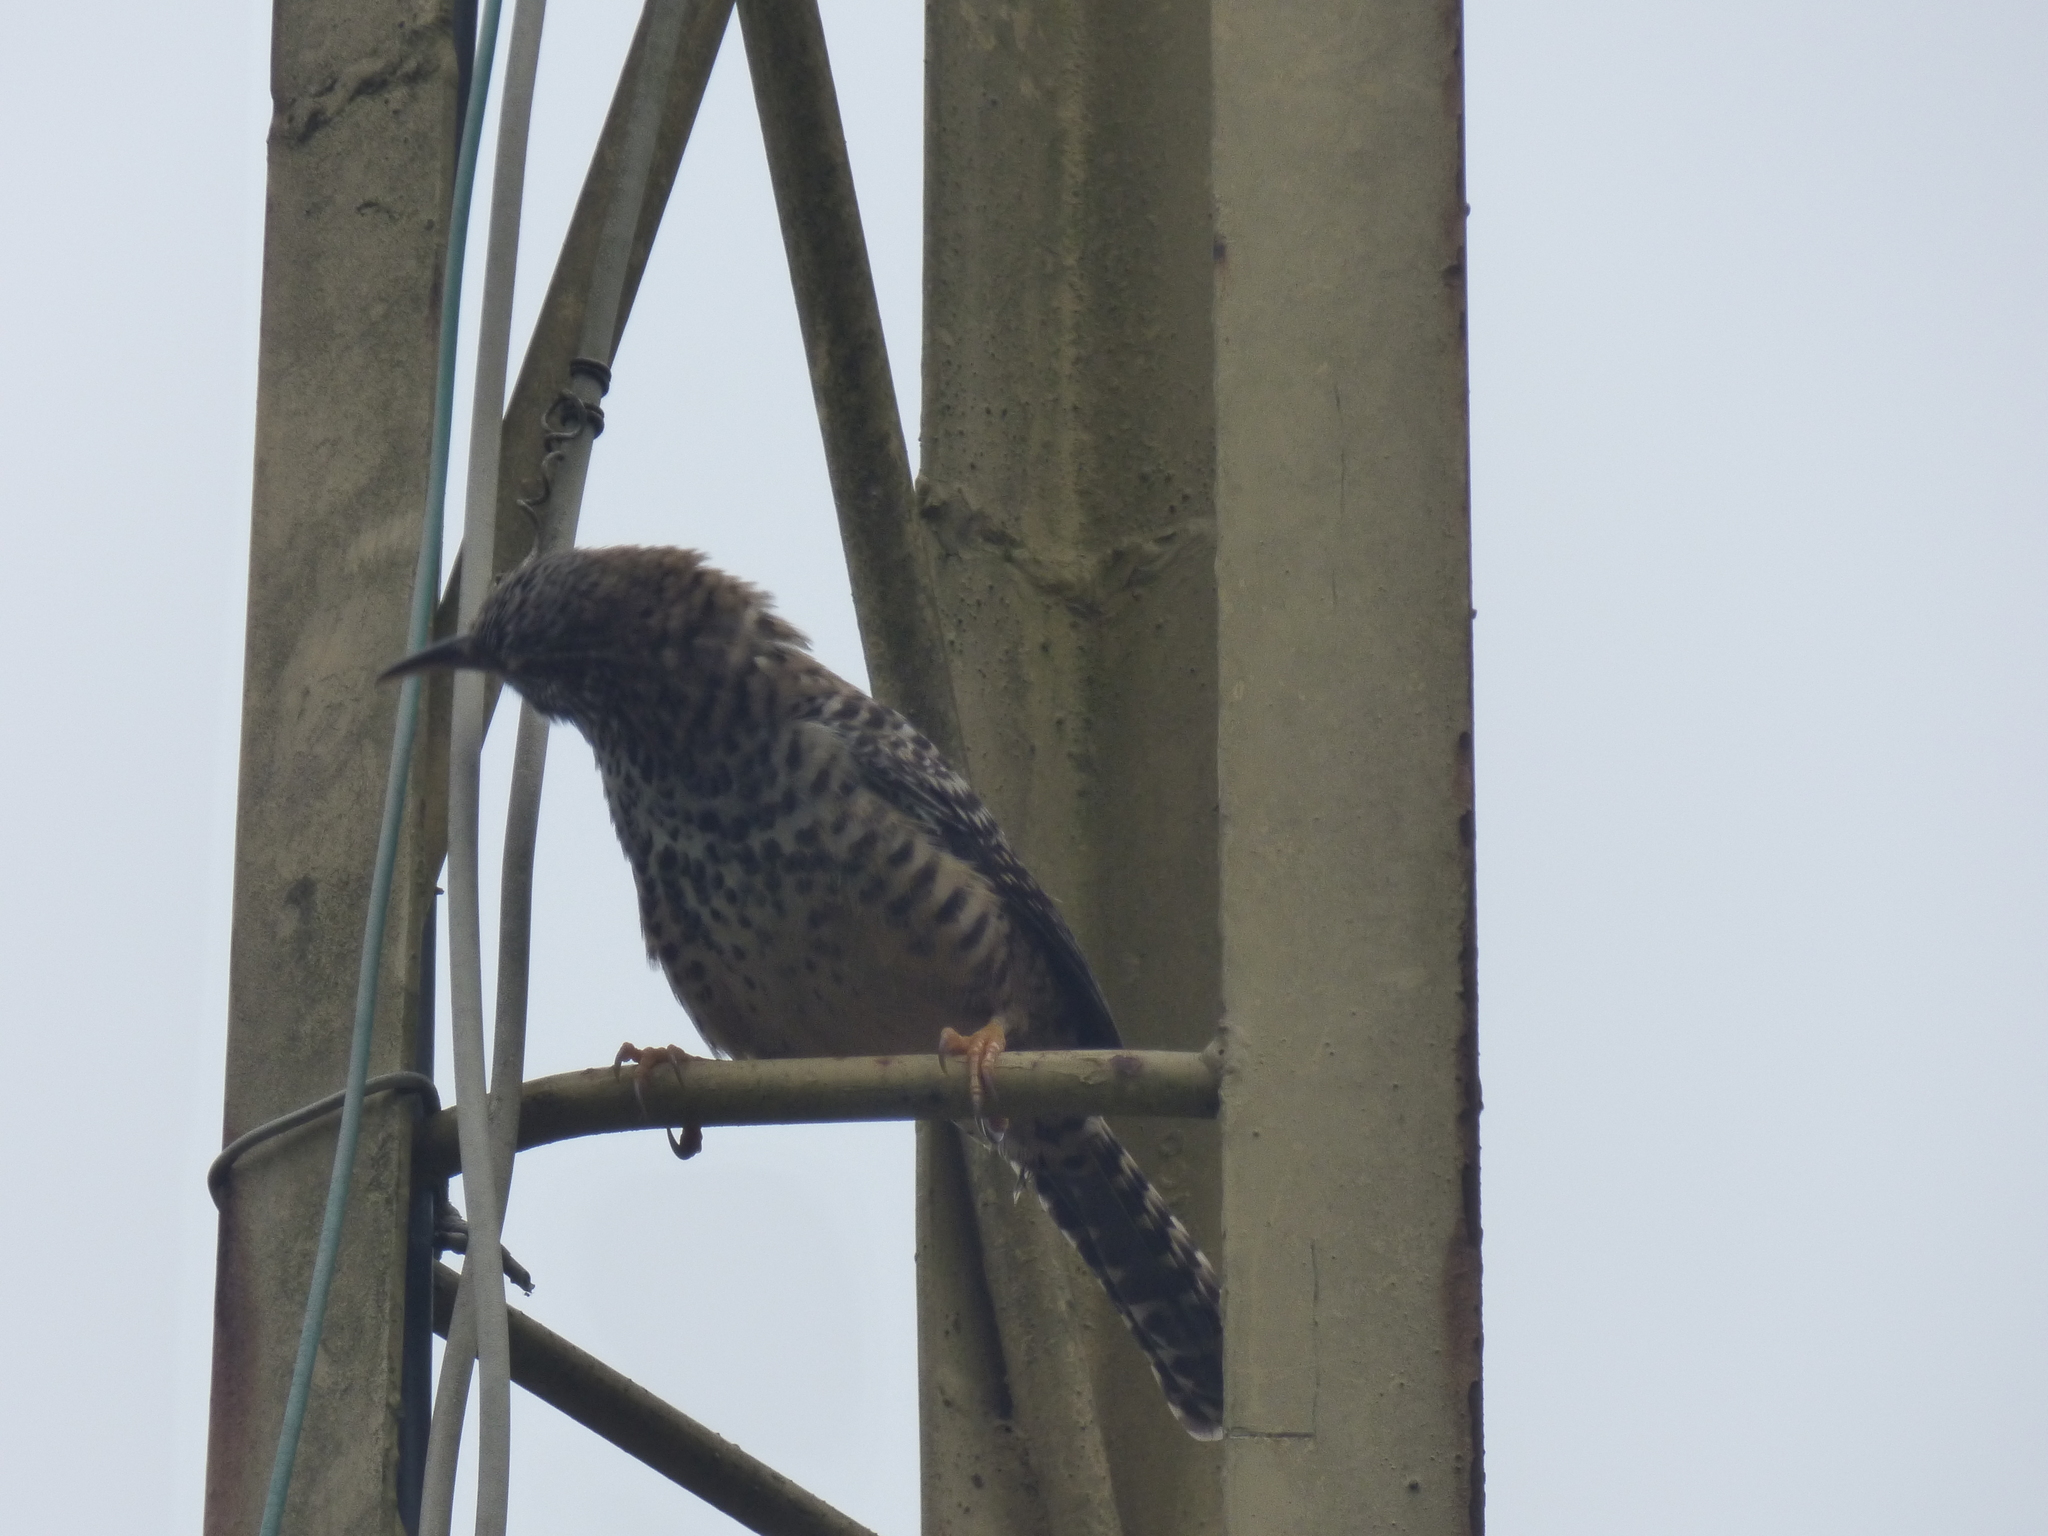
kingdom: Animalia
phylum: Chordata
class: Aves
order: Passeriformes
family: Troglodytidae
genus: Campylorhynchus
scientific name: Campylorhynchus zonatus
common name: Band-backed wren
